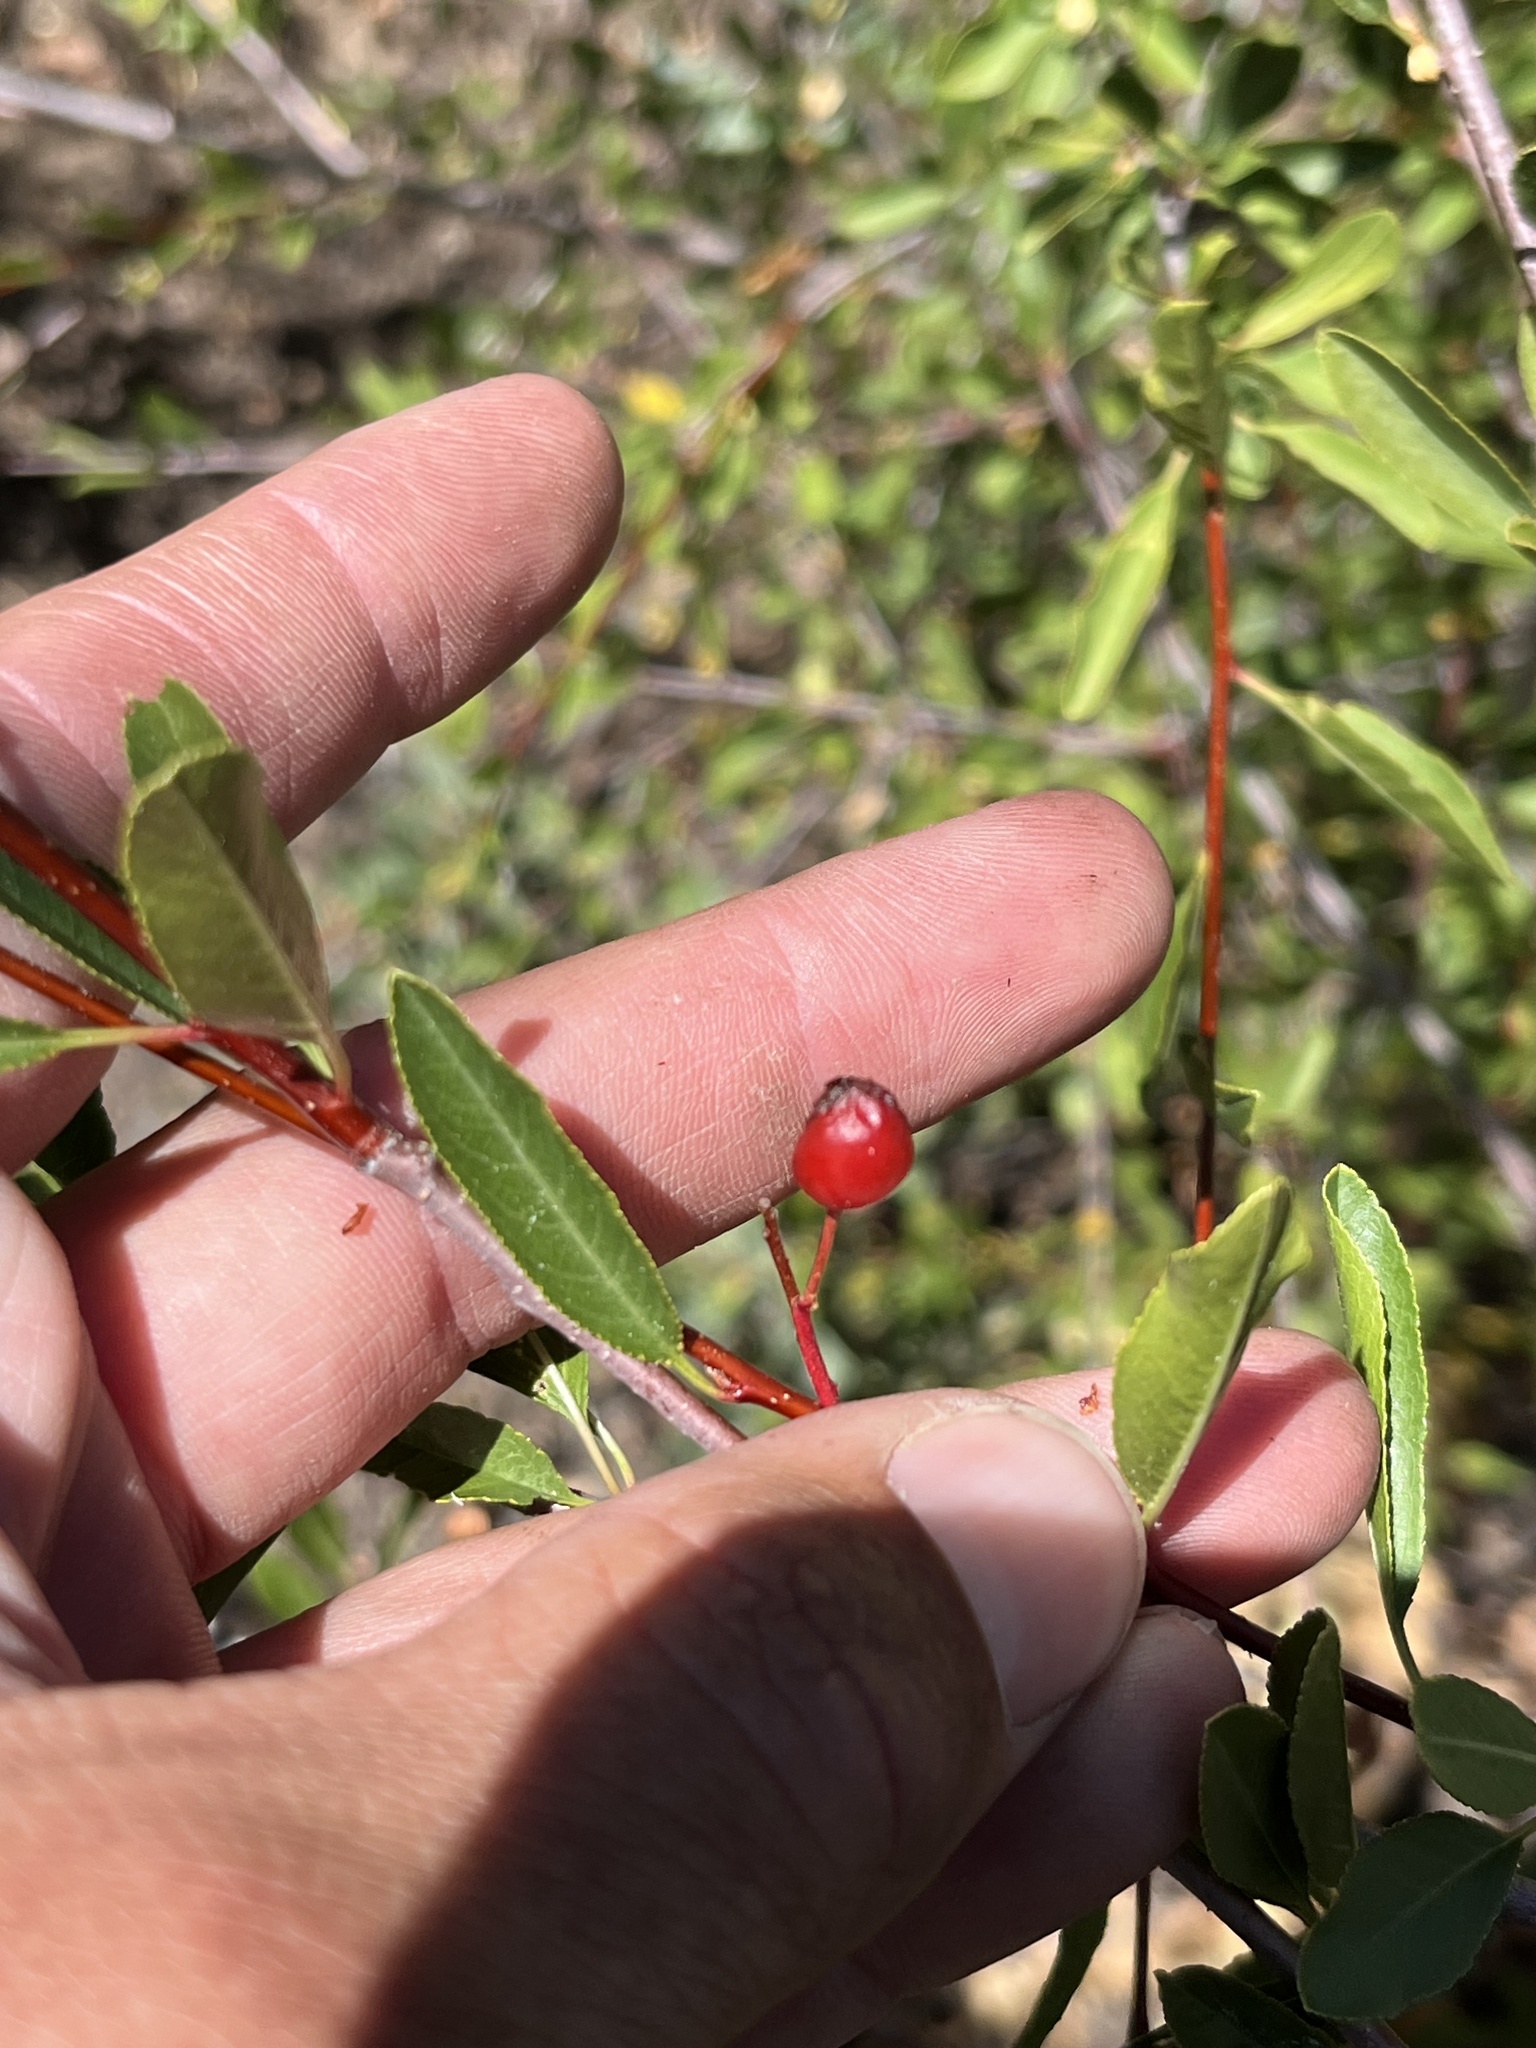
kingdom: Plantae
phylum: Tracheophyta
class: Magnoliopsida
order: Rosales
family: Rosaceae
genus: Prunus
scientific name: Prunus emarginata
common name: Bitter cherry
